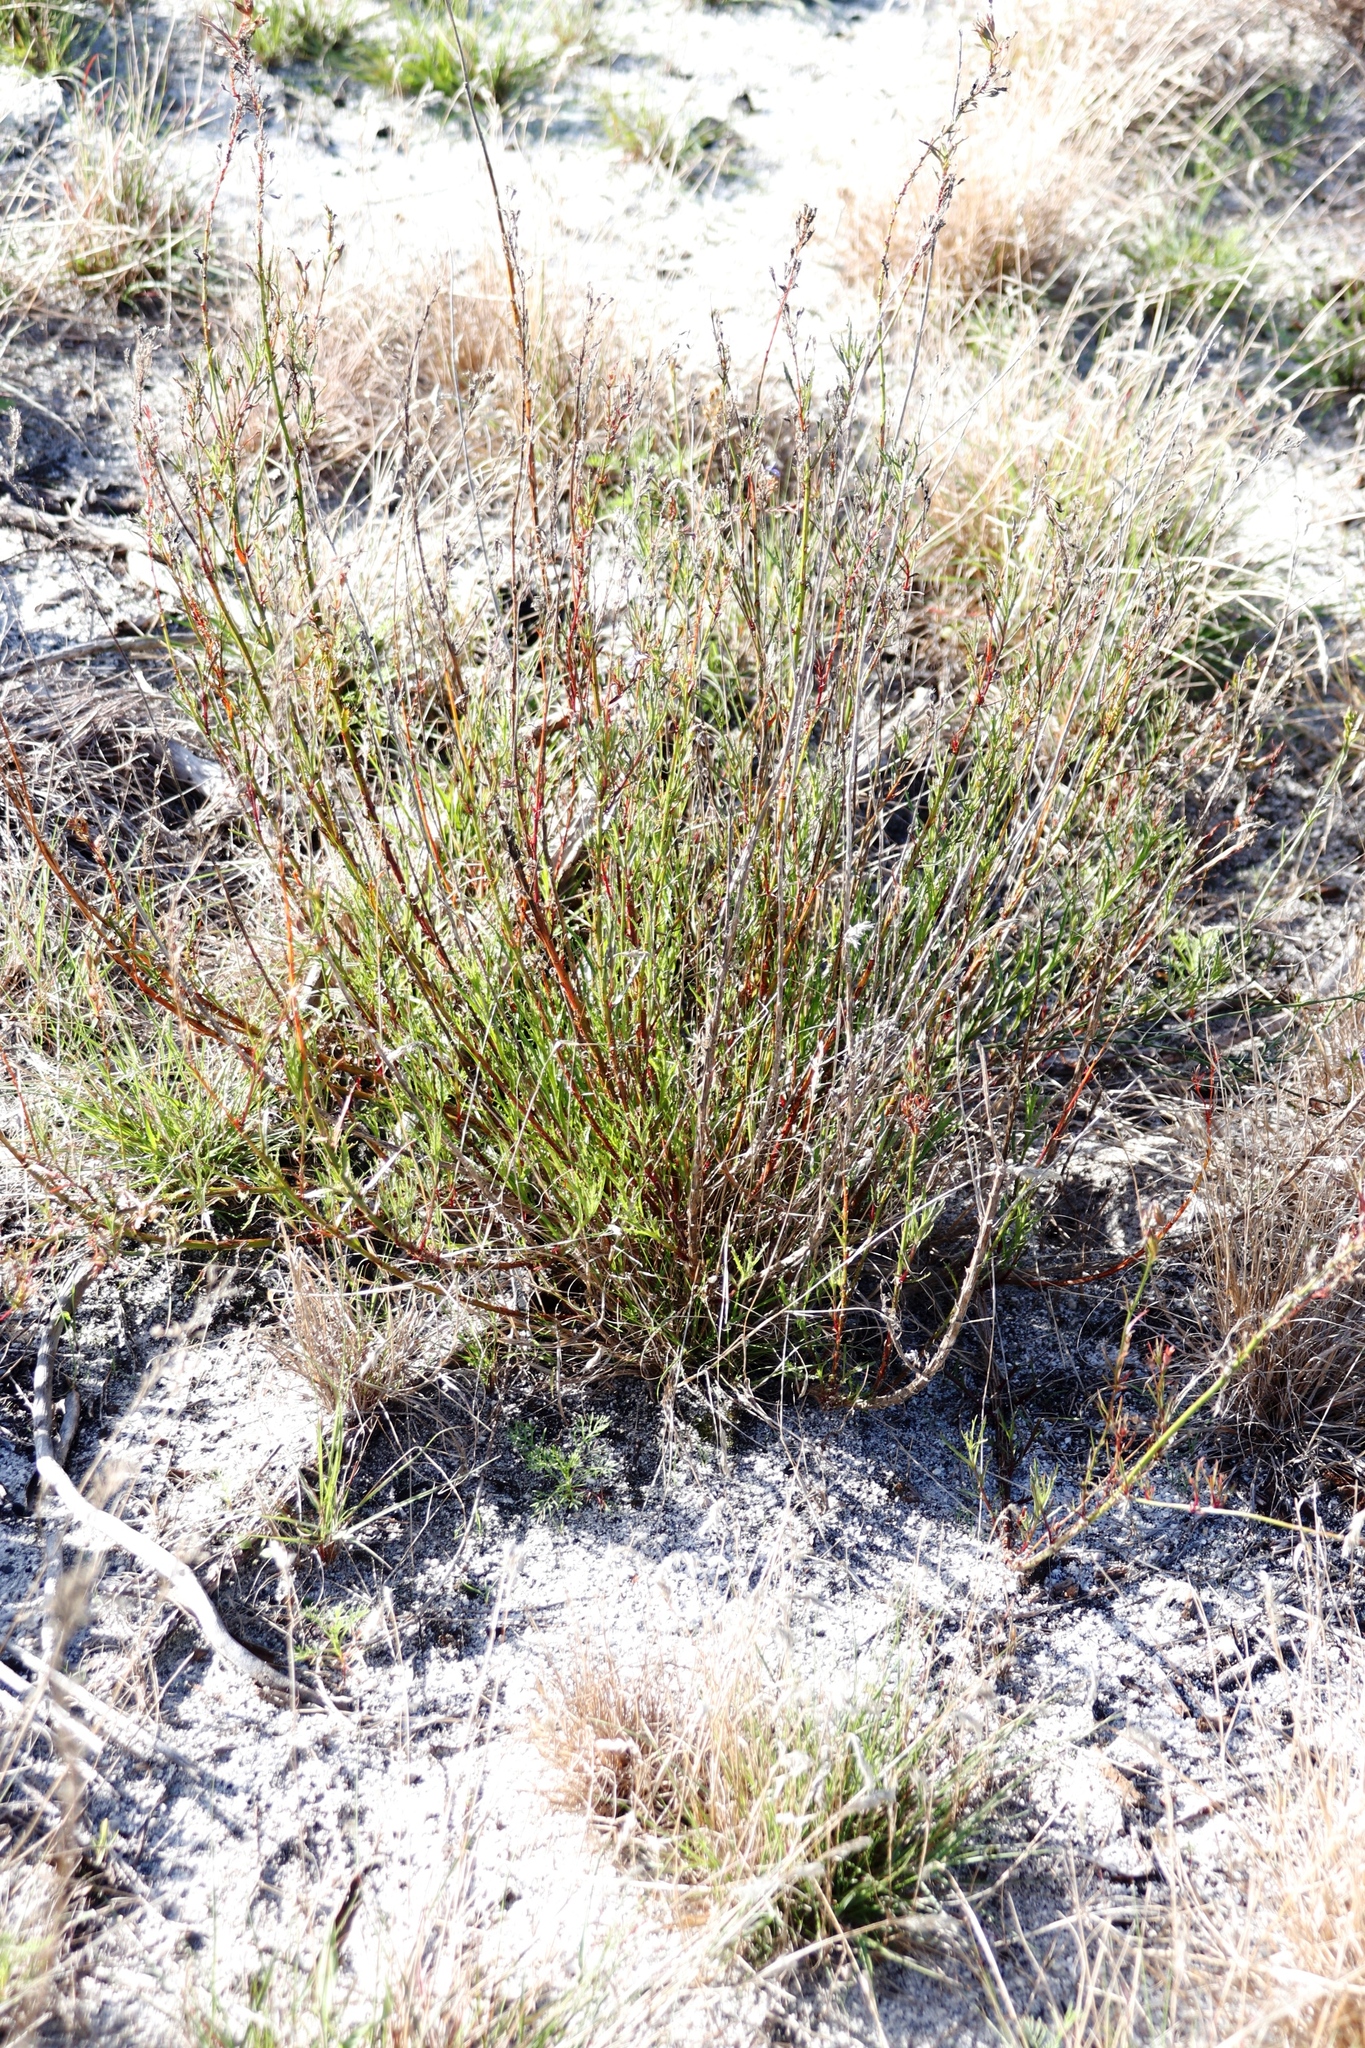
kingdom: Plantae
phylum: Tracheophyta
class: Magnoliopsida
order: Asterales
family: Campanulaceae
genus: Lobelia
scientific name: Lobelia comosa
